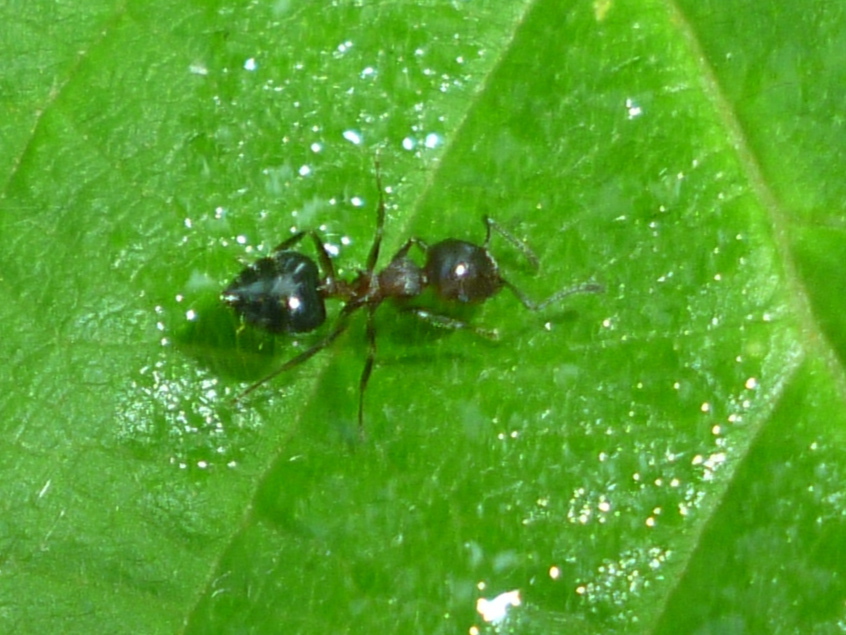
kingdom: Animalia
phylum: Arthropoda
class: Insecta
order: Hymenoptera
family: Formicidae
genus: Crematogaster
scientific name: Crematogaster
